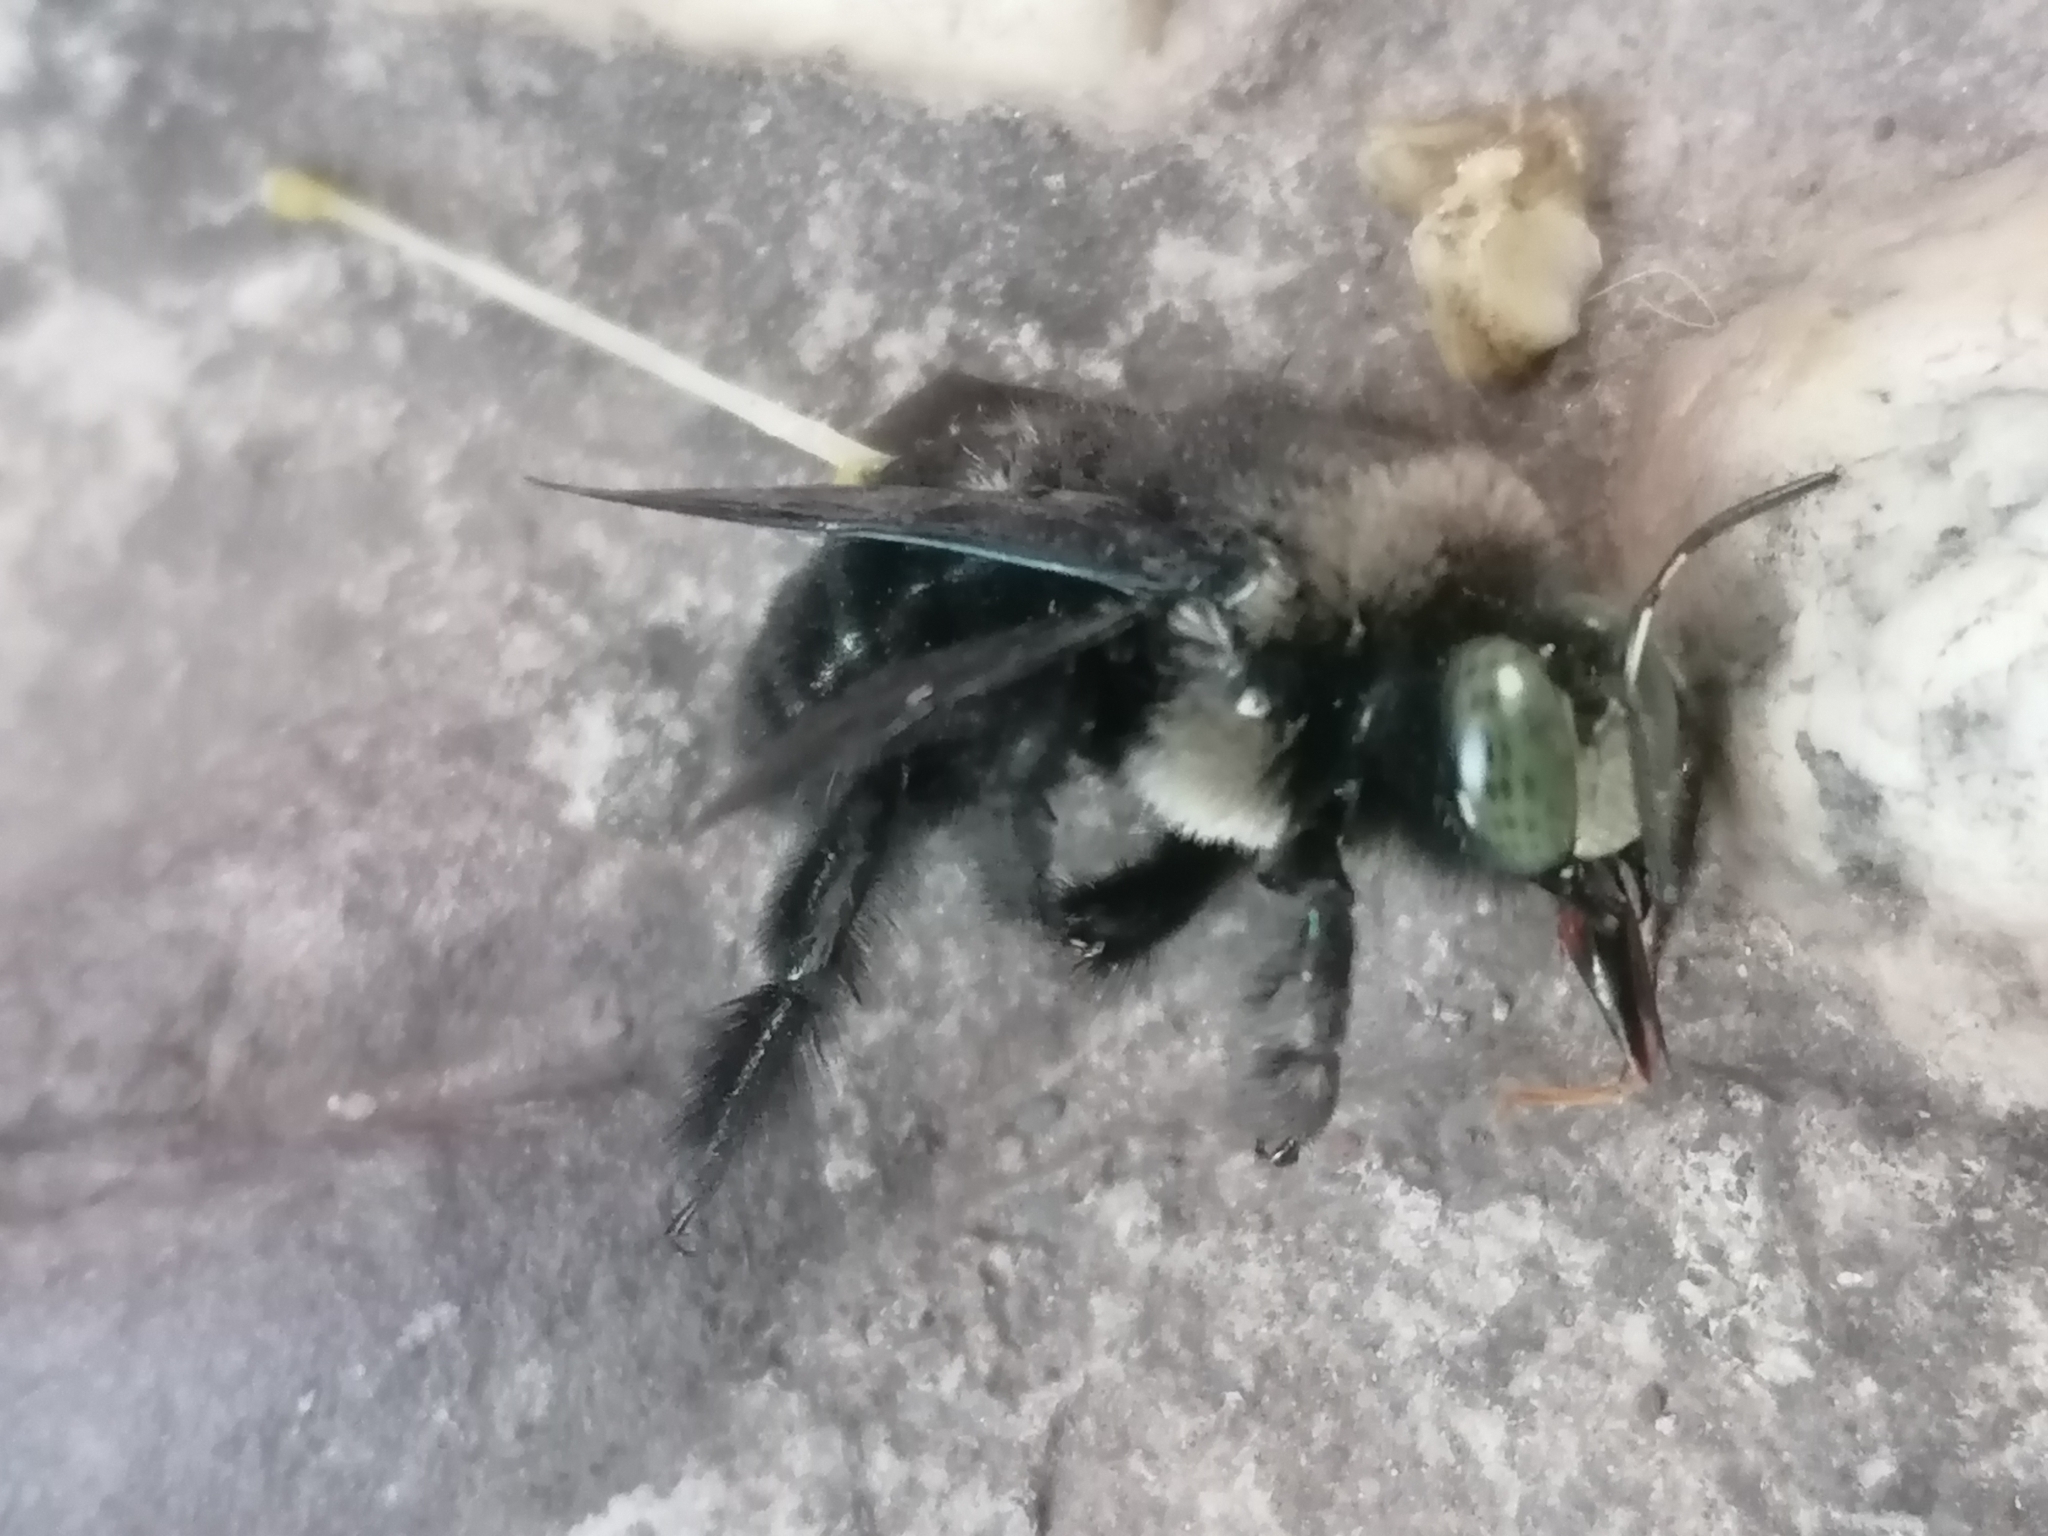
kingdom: Animalia
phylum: Arthropoda
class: Insecta
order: Hymenoptera
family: Apidae
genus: Xylocopa
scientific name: Xylocopa viridigastra
